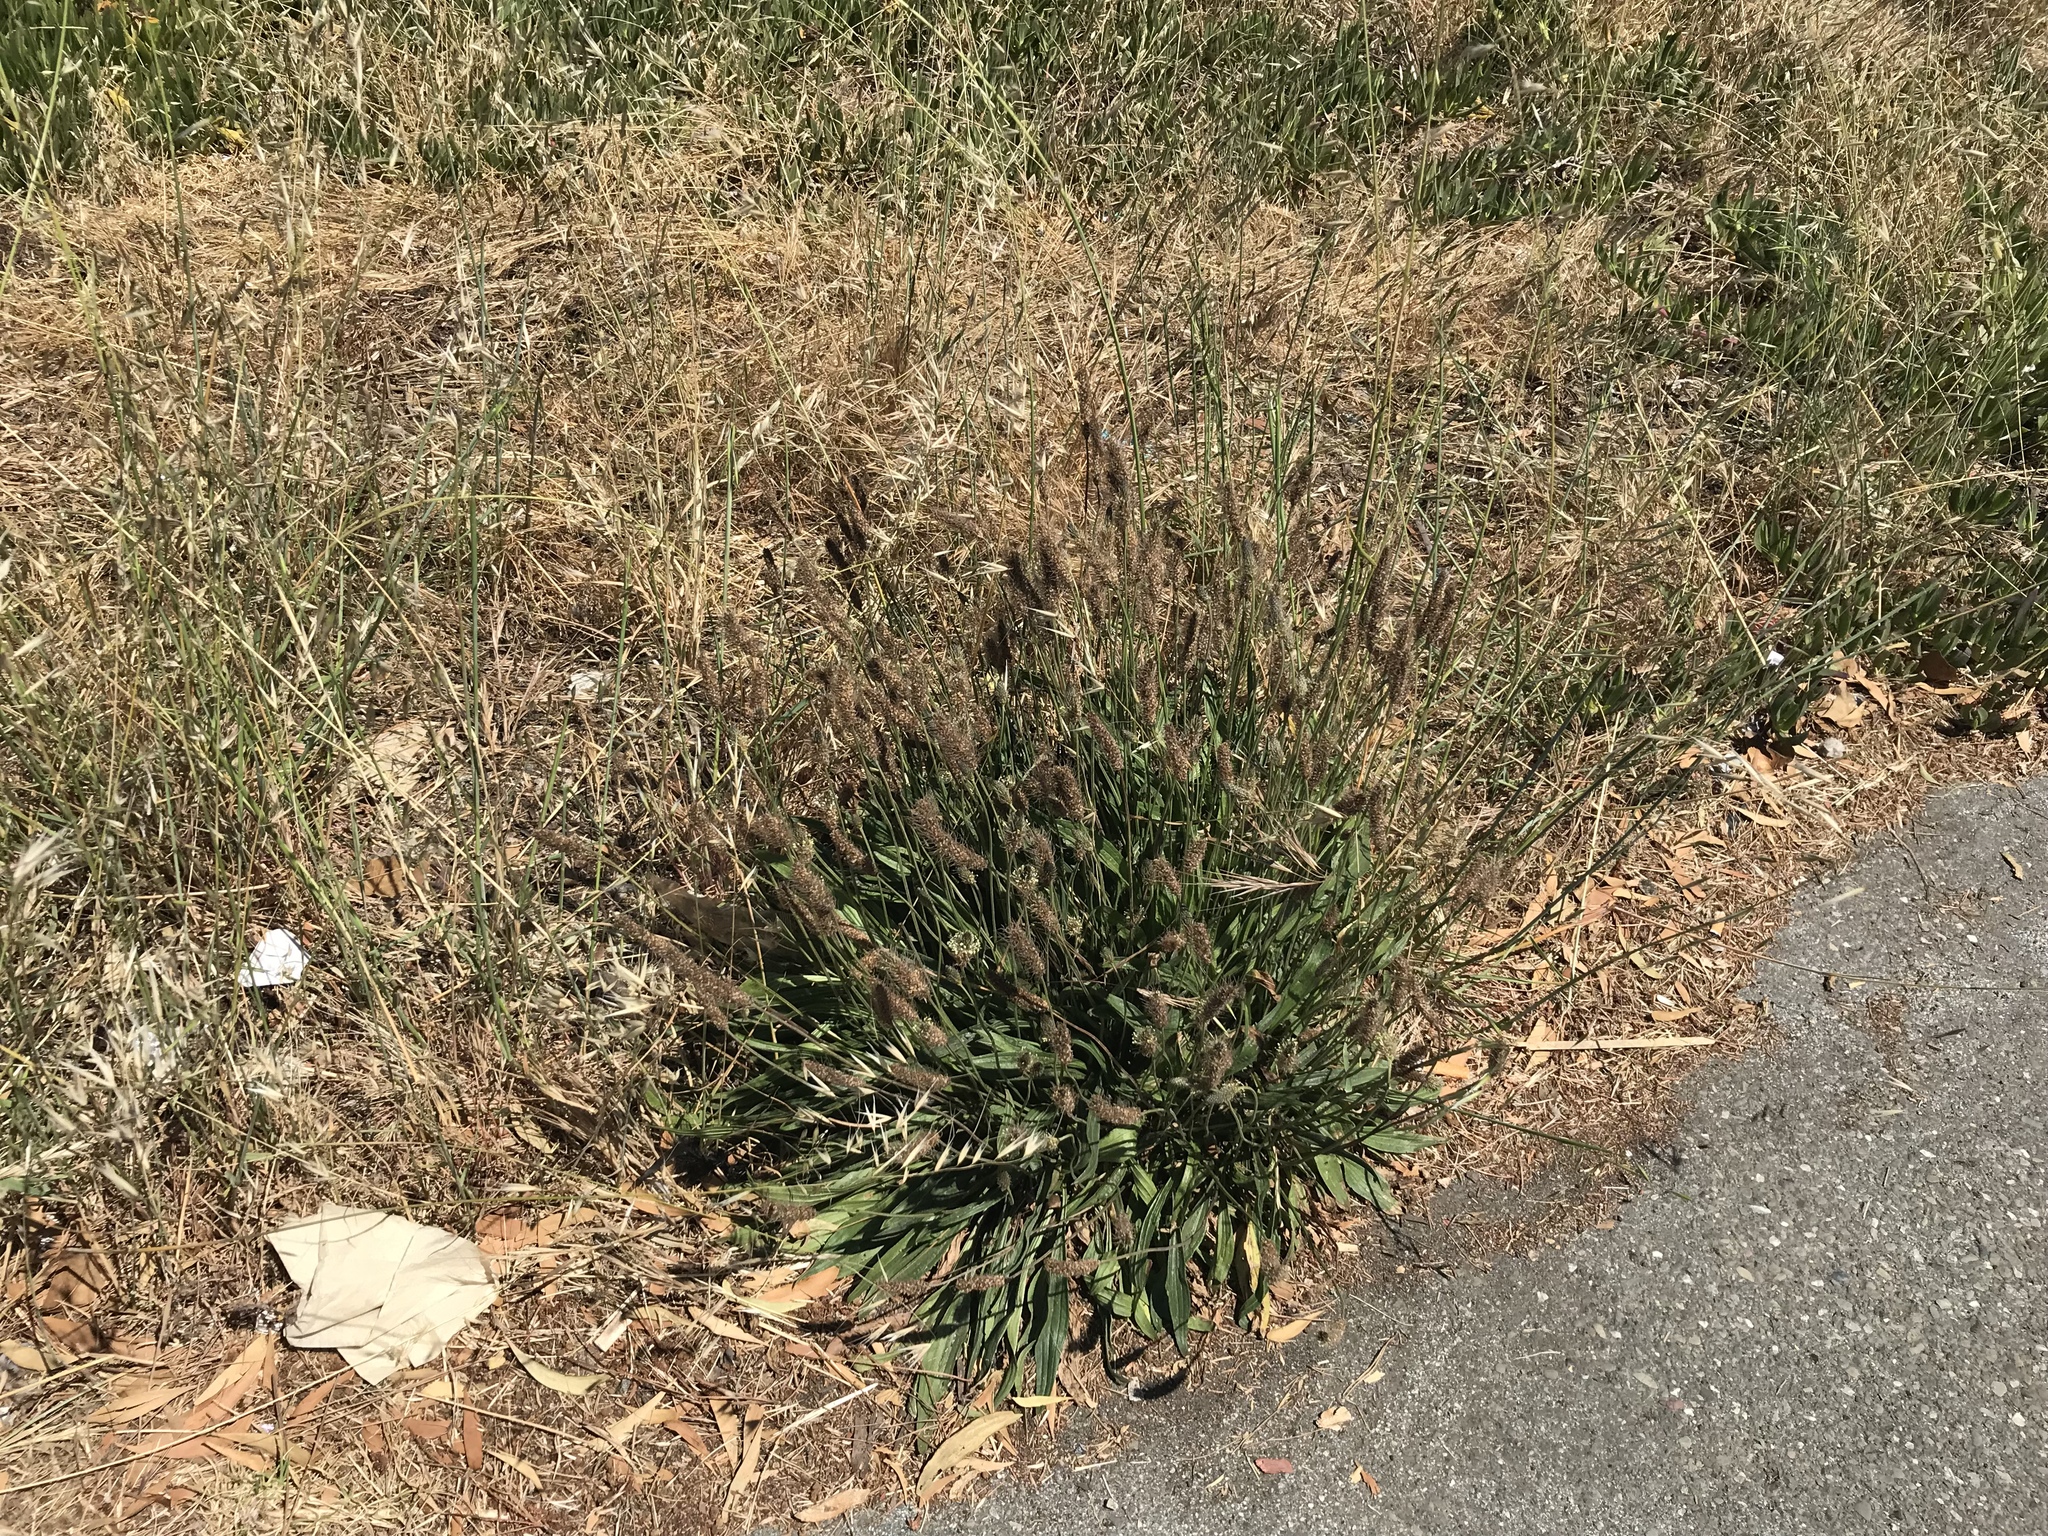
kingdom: Plantae
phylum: Tracheophyta
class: Magnoliopsida
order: Lamiales
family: Plantaginaceae
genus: Plantago
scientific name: Plantago lanceolata
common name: Ribwort plantain
